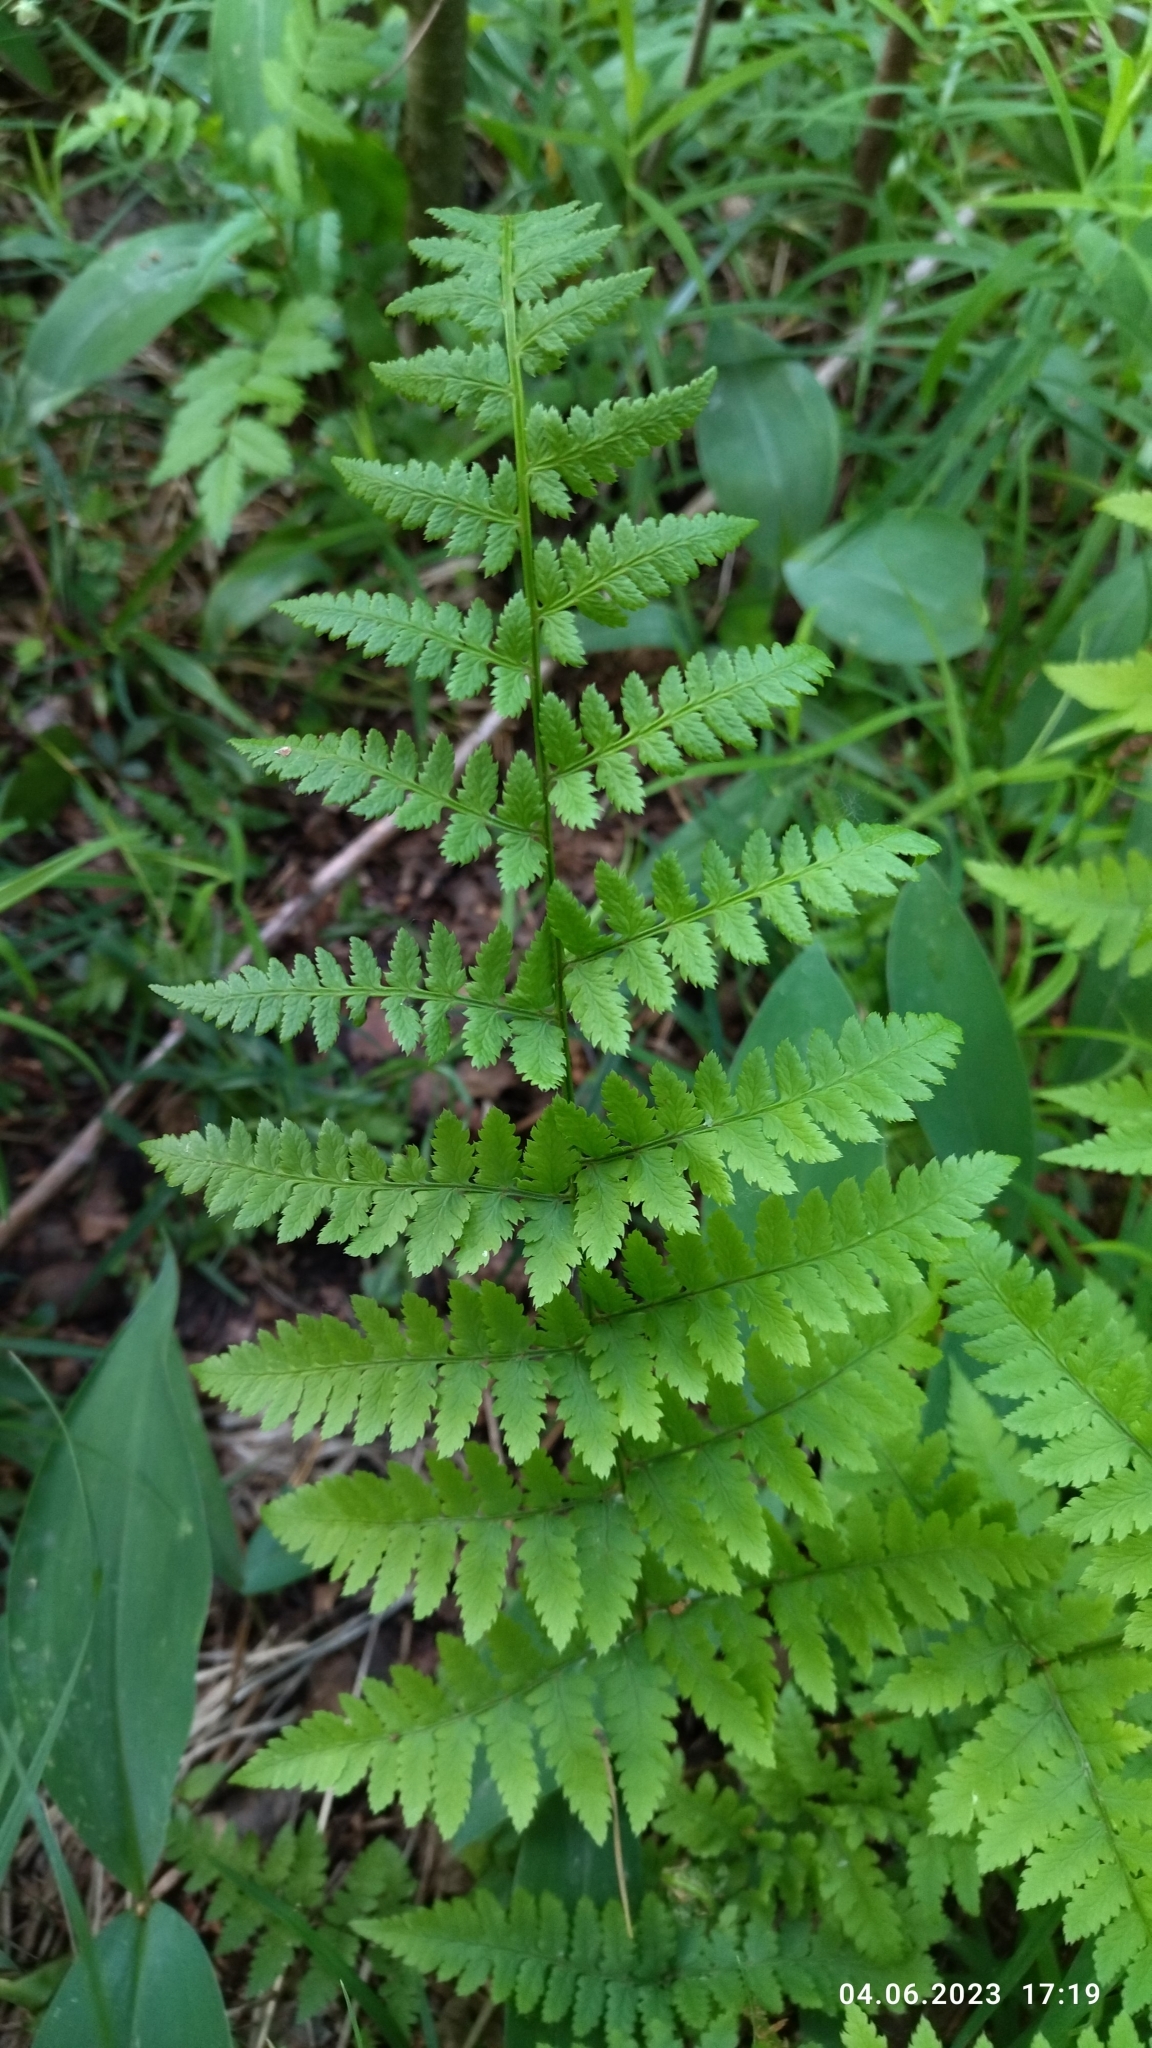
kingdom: Plantae
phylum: Tracheophyta
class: Polypodiopsida
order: Polypodiales
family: Dryopteridaceae
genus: Dryopteris
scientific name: Dryopteris carthusiana
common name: Narrow buckler-fern
